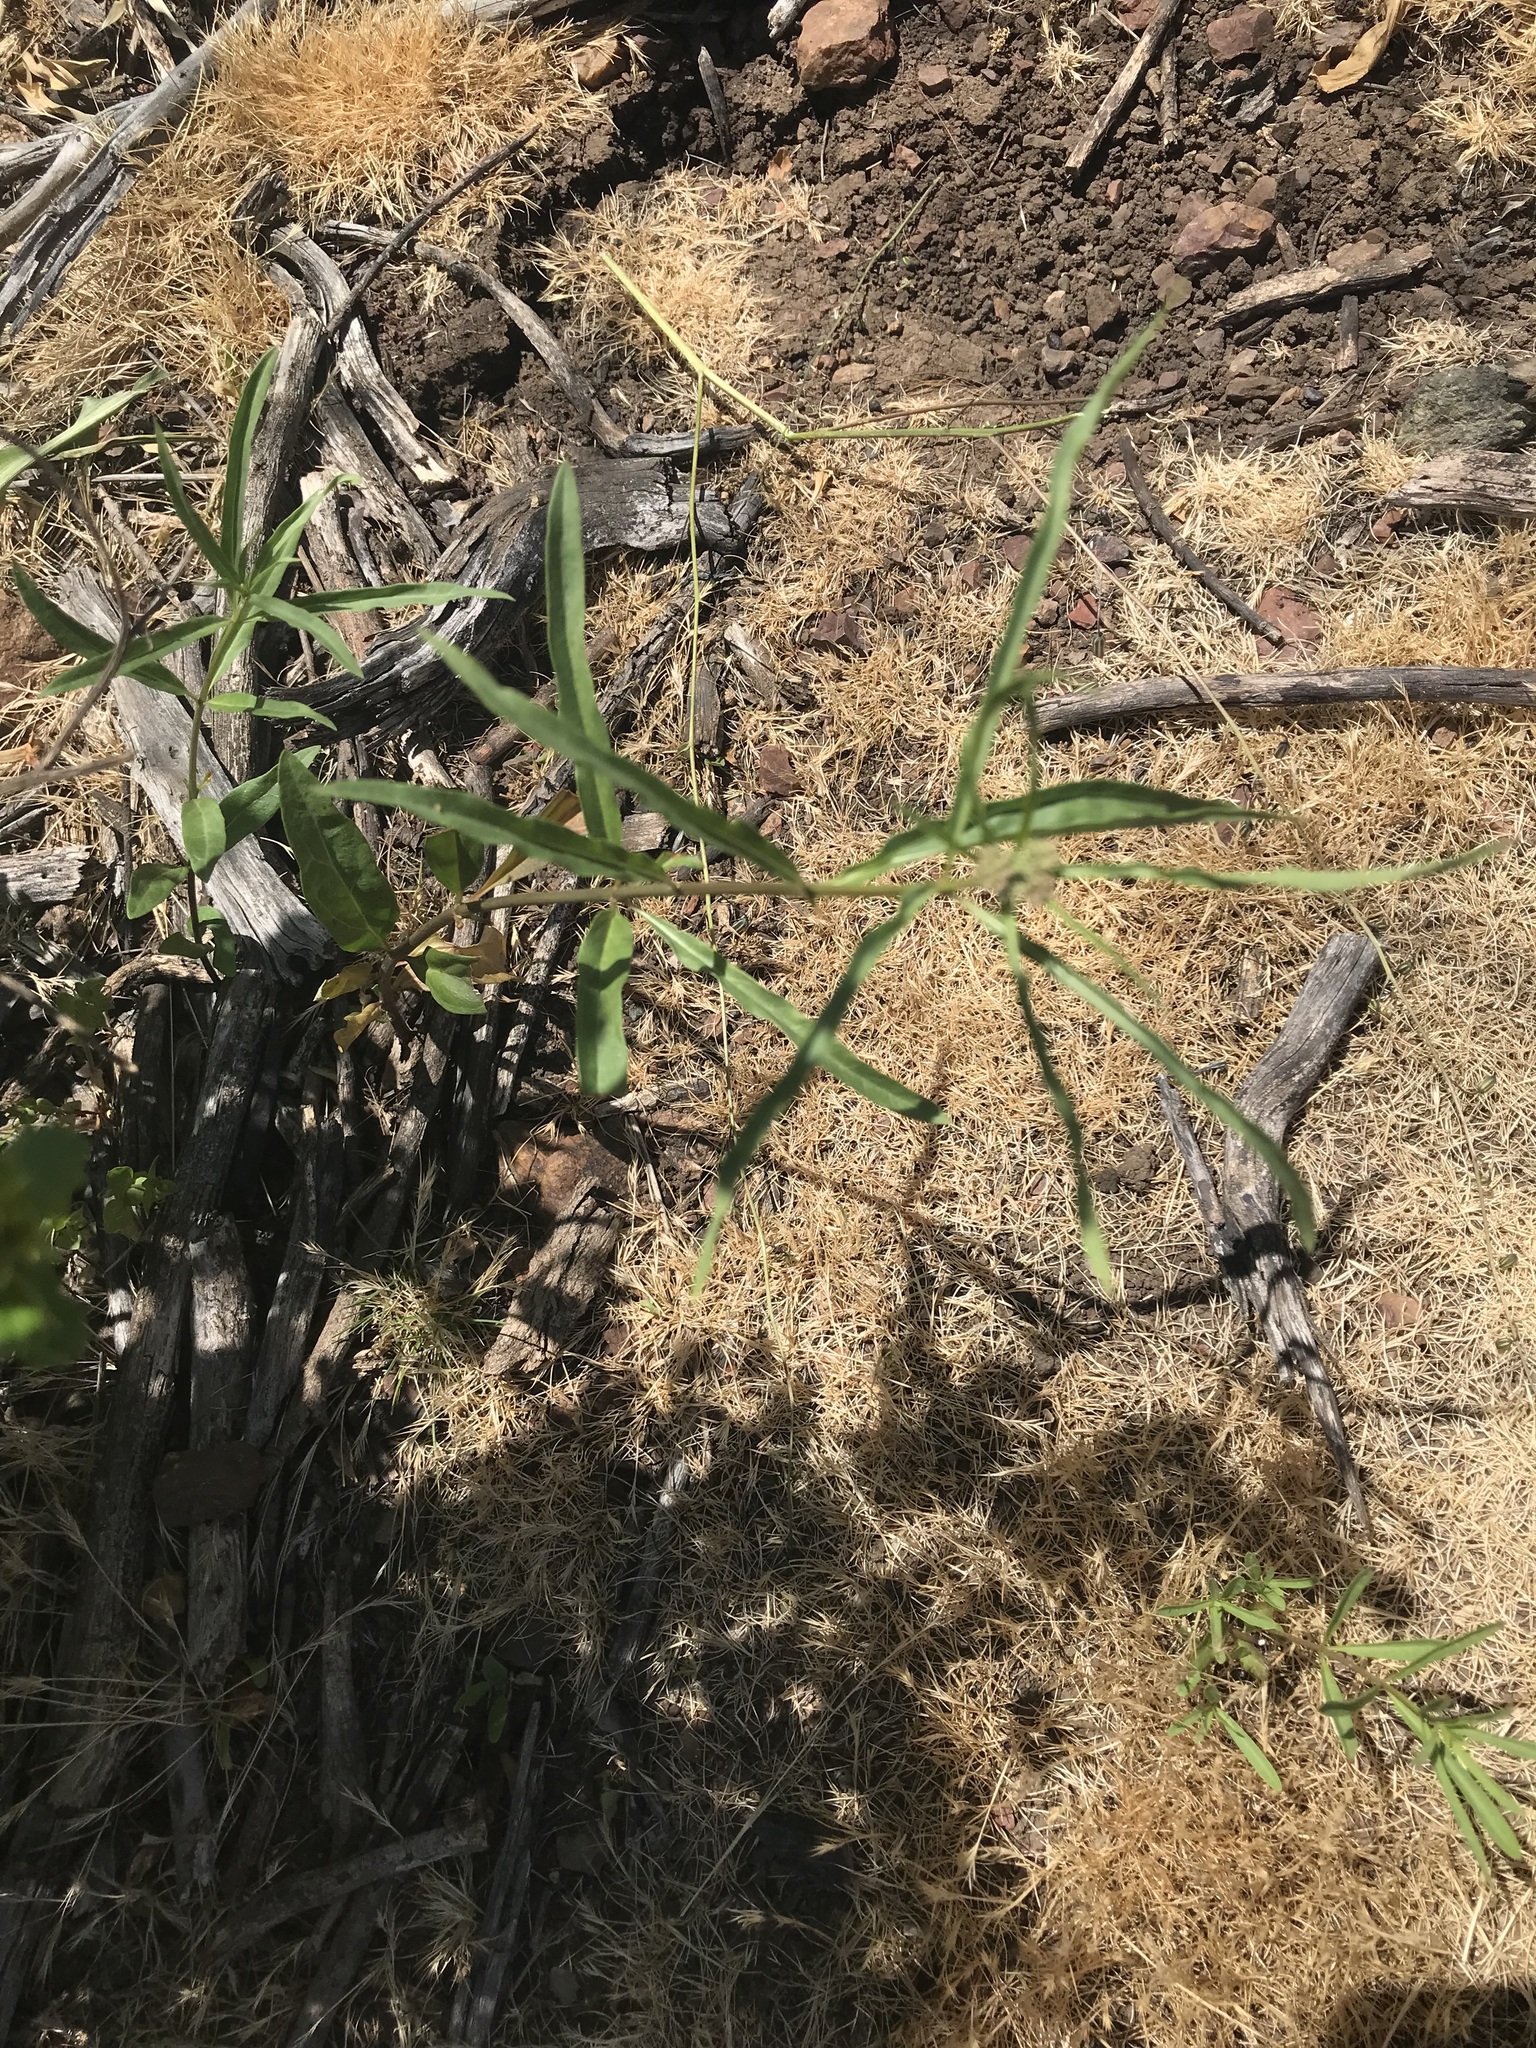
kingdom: Plantae
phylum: Tracheophyta
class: Magnoliopsida
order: Gentianales
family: Apocynaceae
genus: Asclepias
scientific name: Asclepias fascicularis
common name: Mexican milkweed
